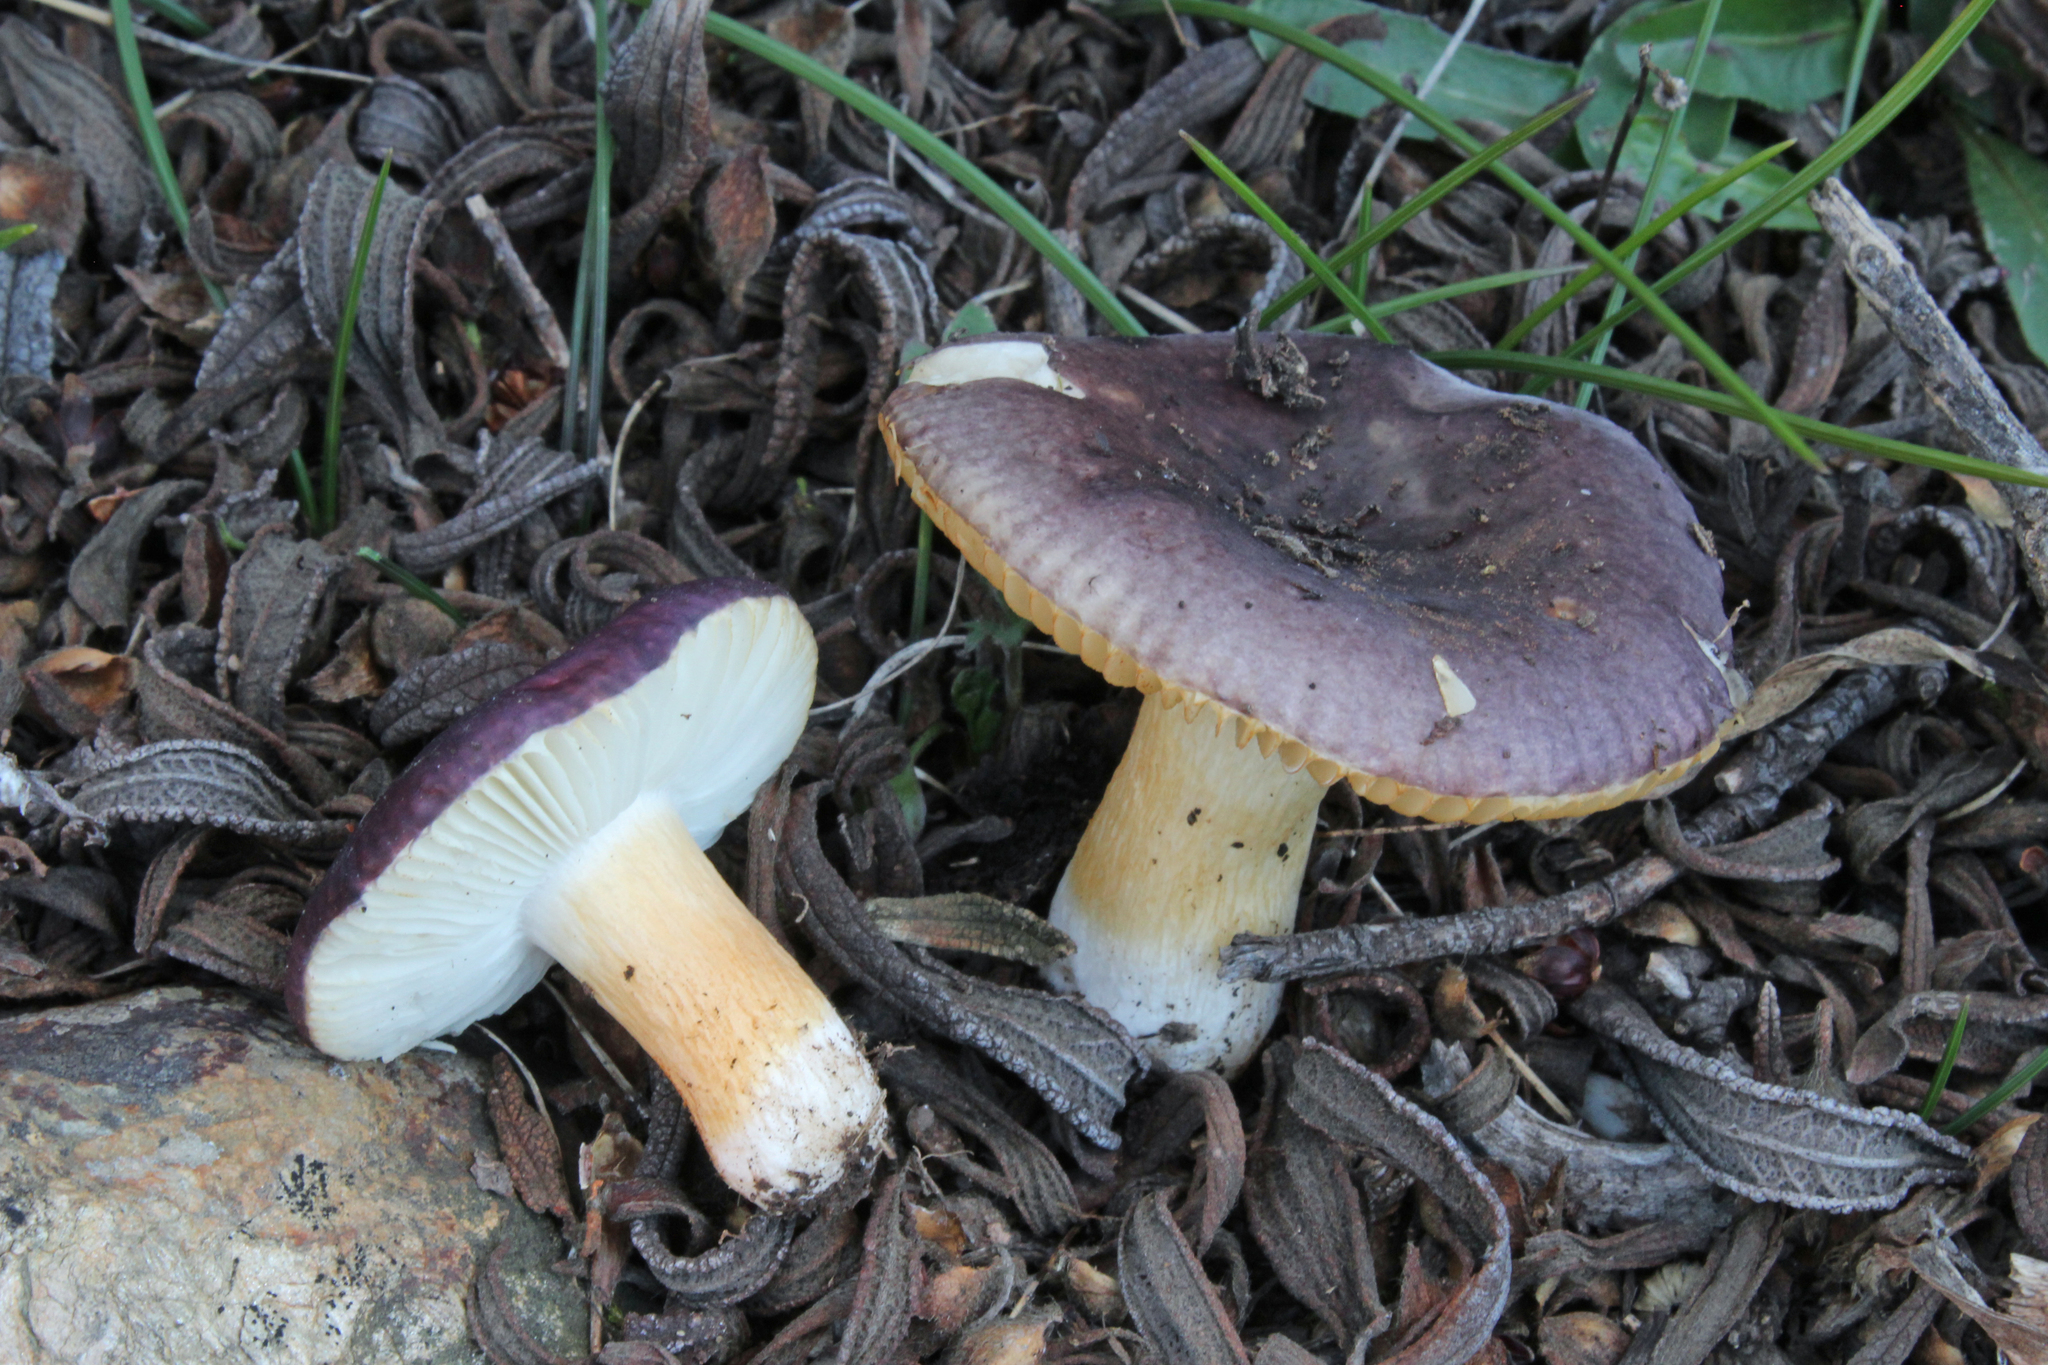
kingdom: Fungi
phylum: Basidiomycota
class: Agaricomycetes
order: Russulales
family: Russulaceae
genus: Russula
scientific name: Russula cistoadelpha
